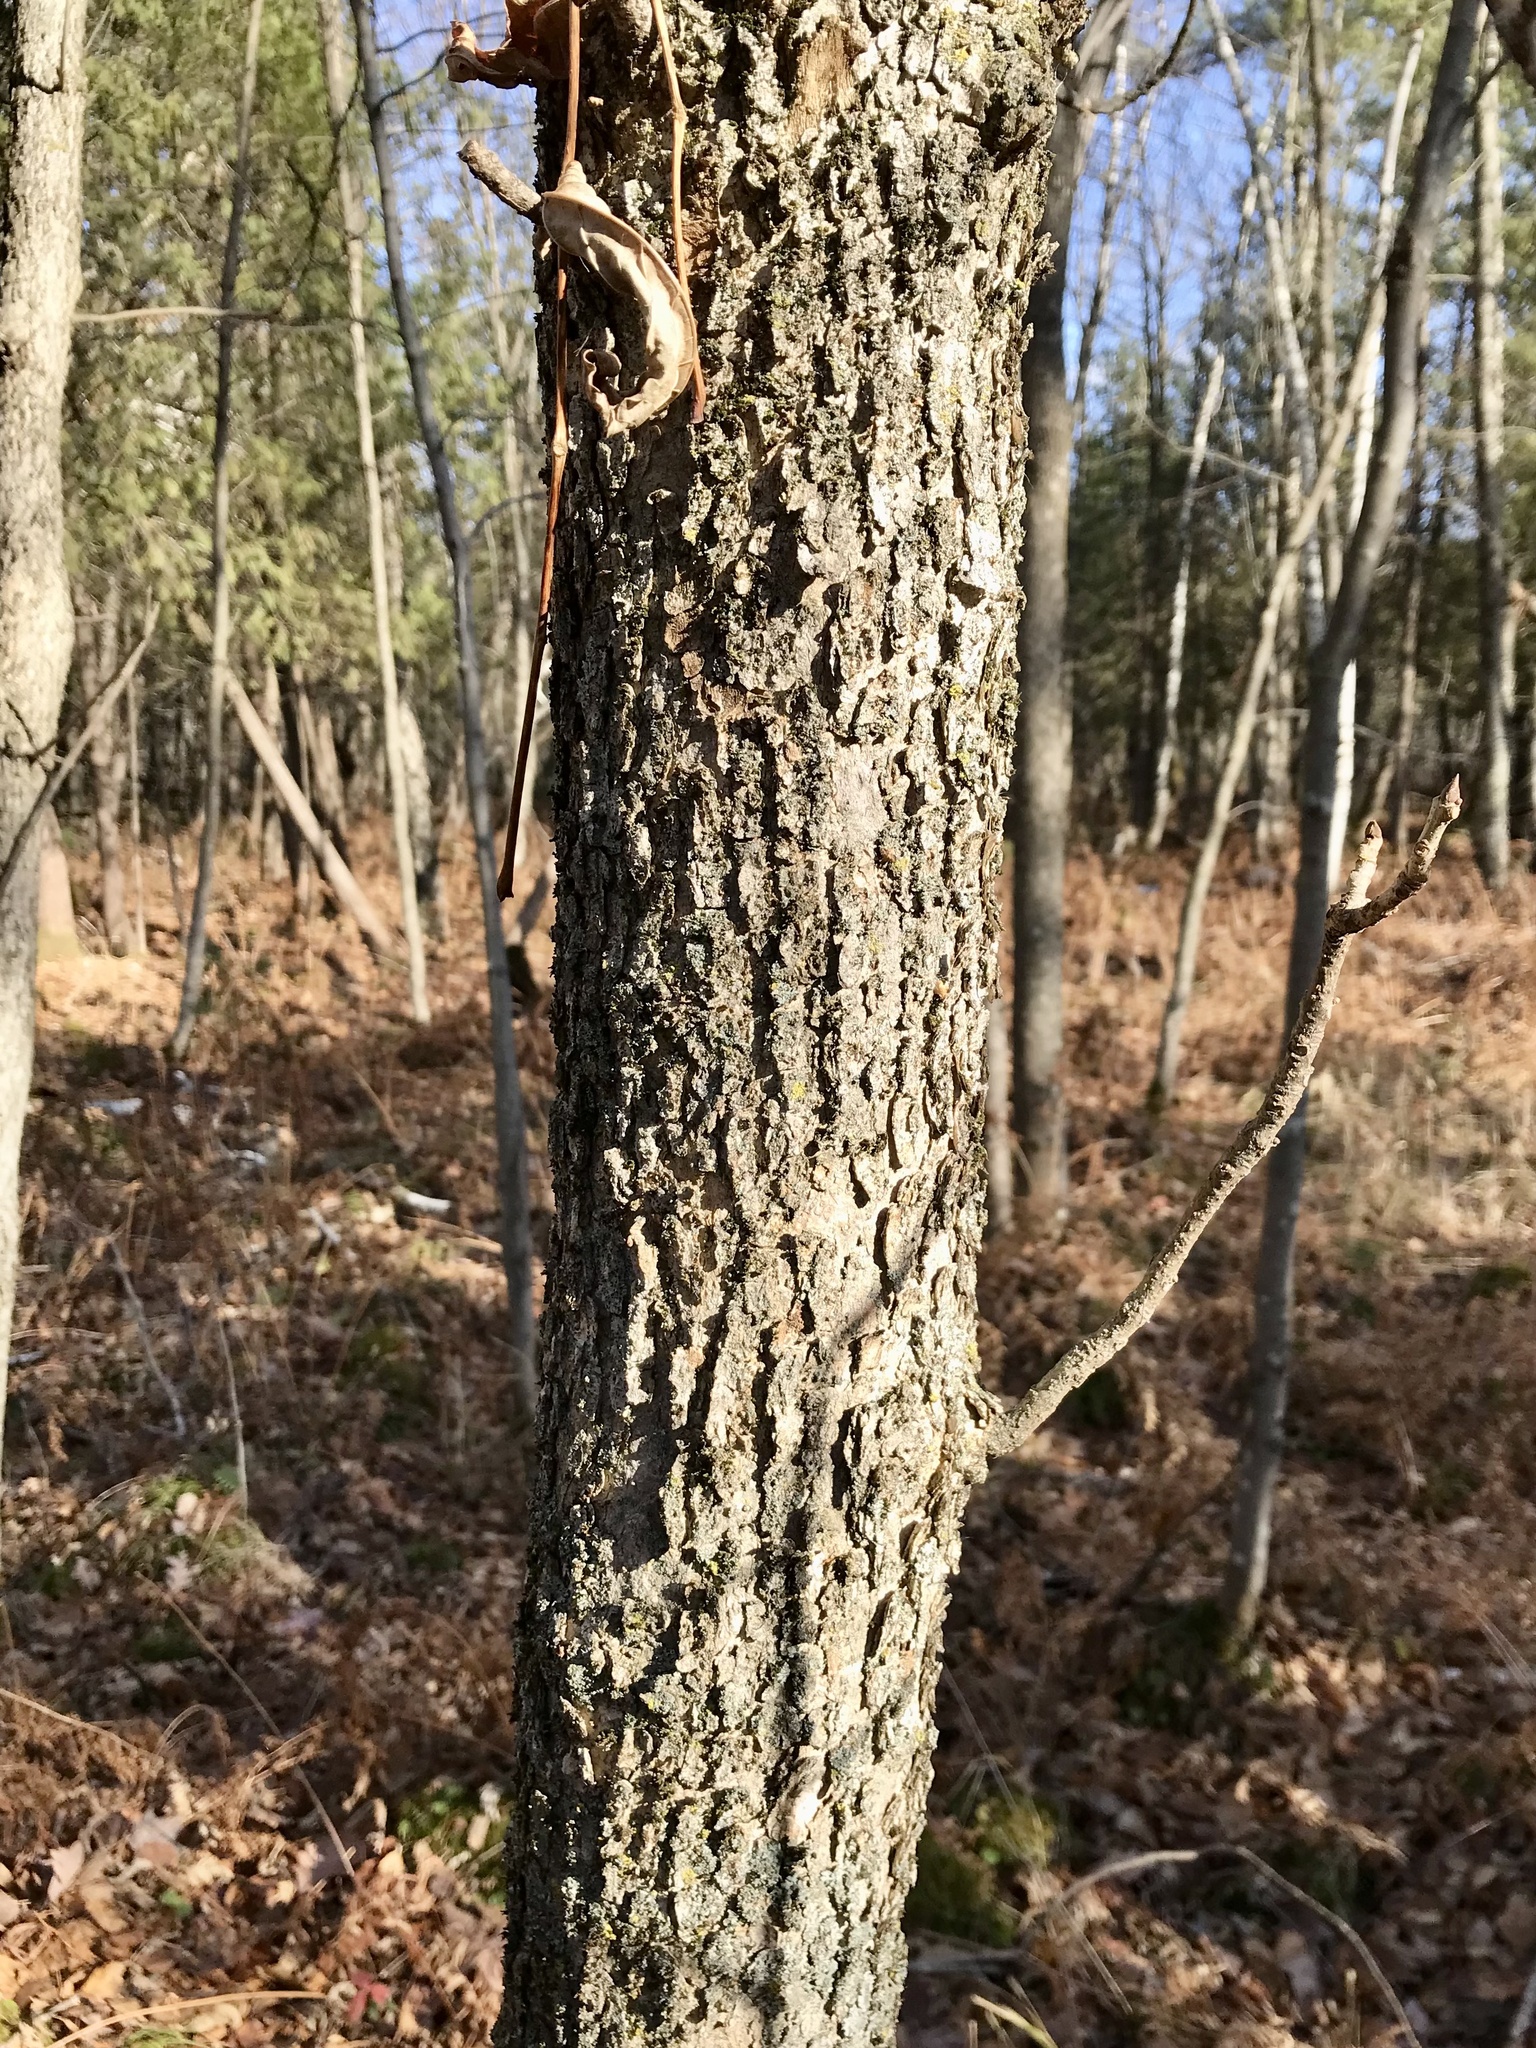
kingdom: Plantae
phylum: Tracheophyta
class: Magnoliopsida
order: Lamiales
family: Oleaceae
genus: Fraxinus
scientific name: Fraxinus nigra
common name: Black ash
